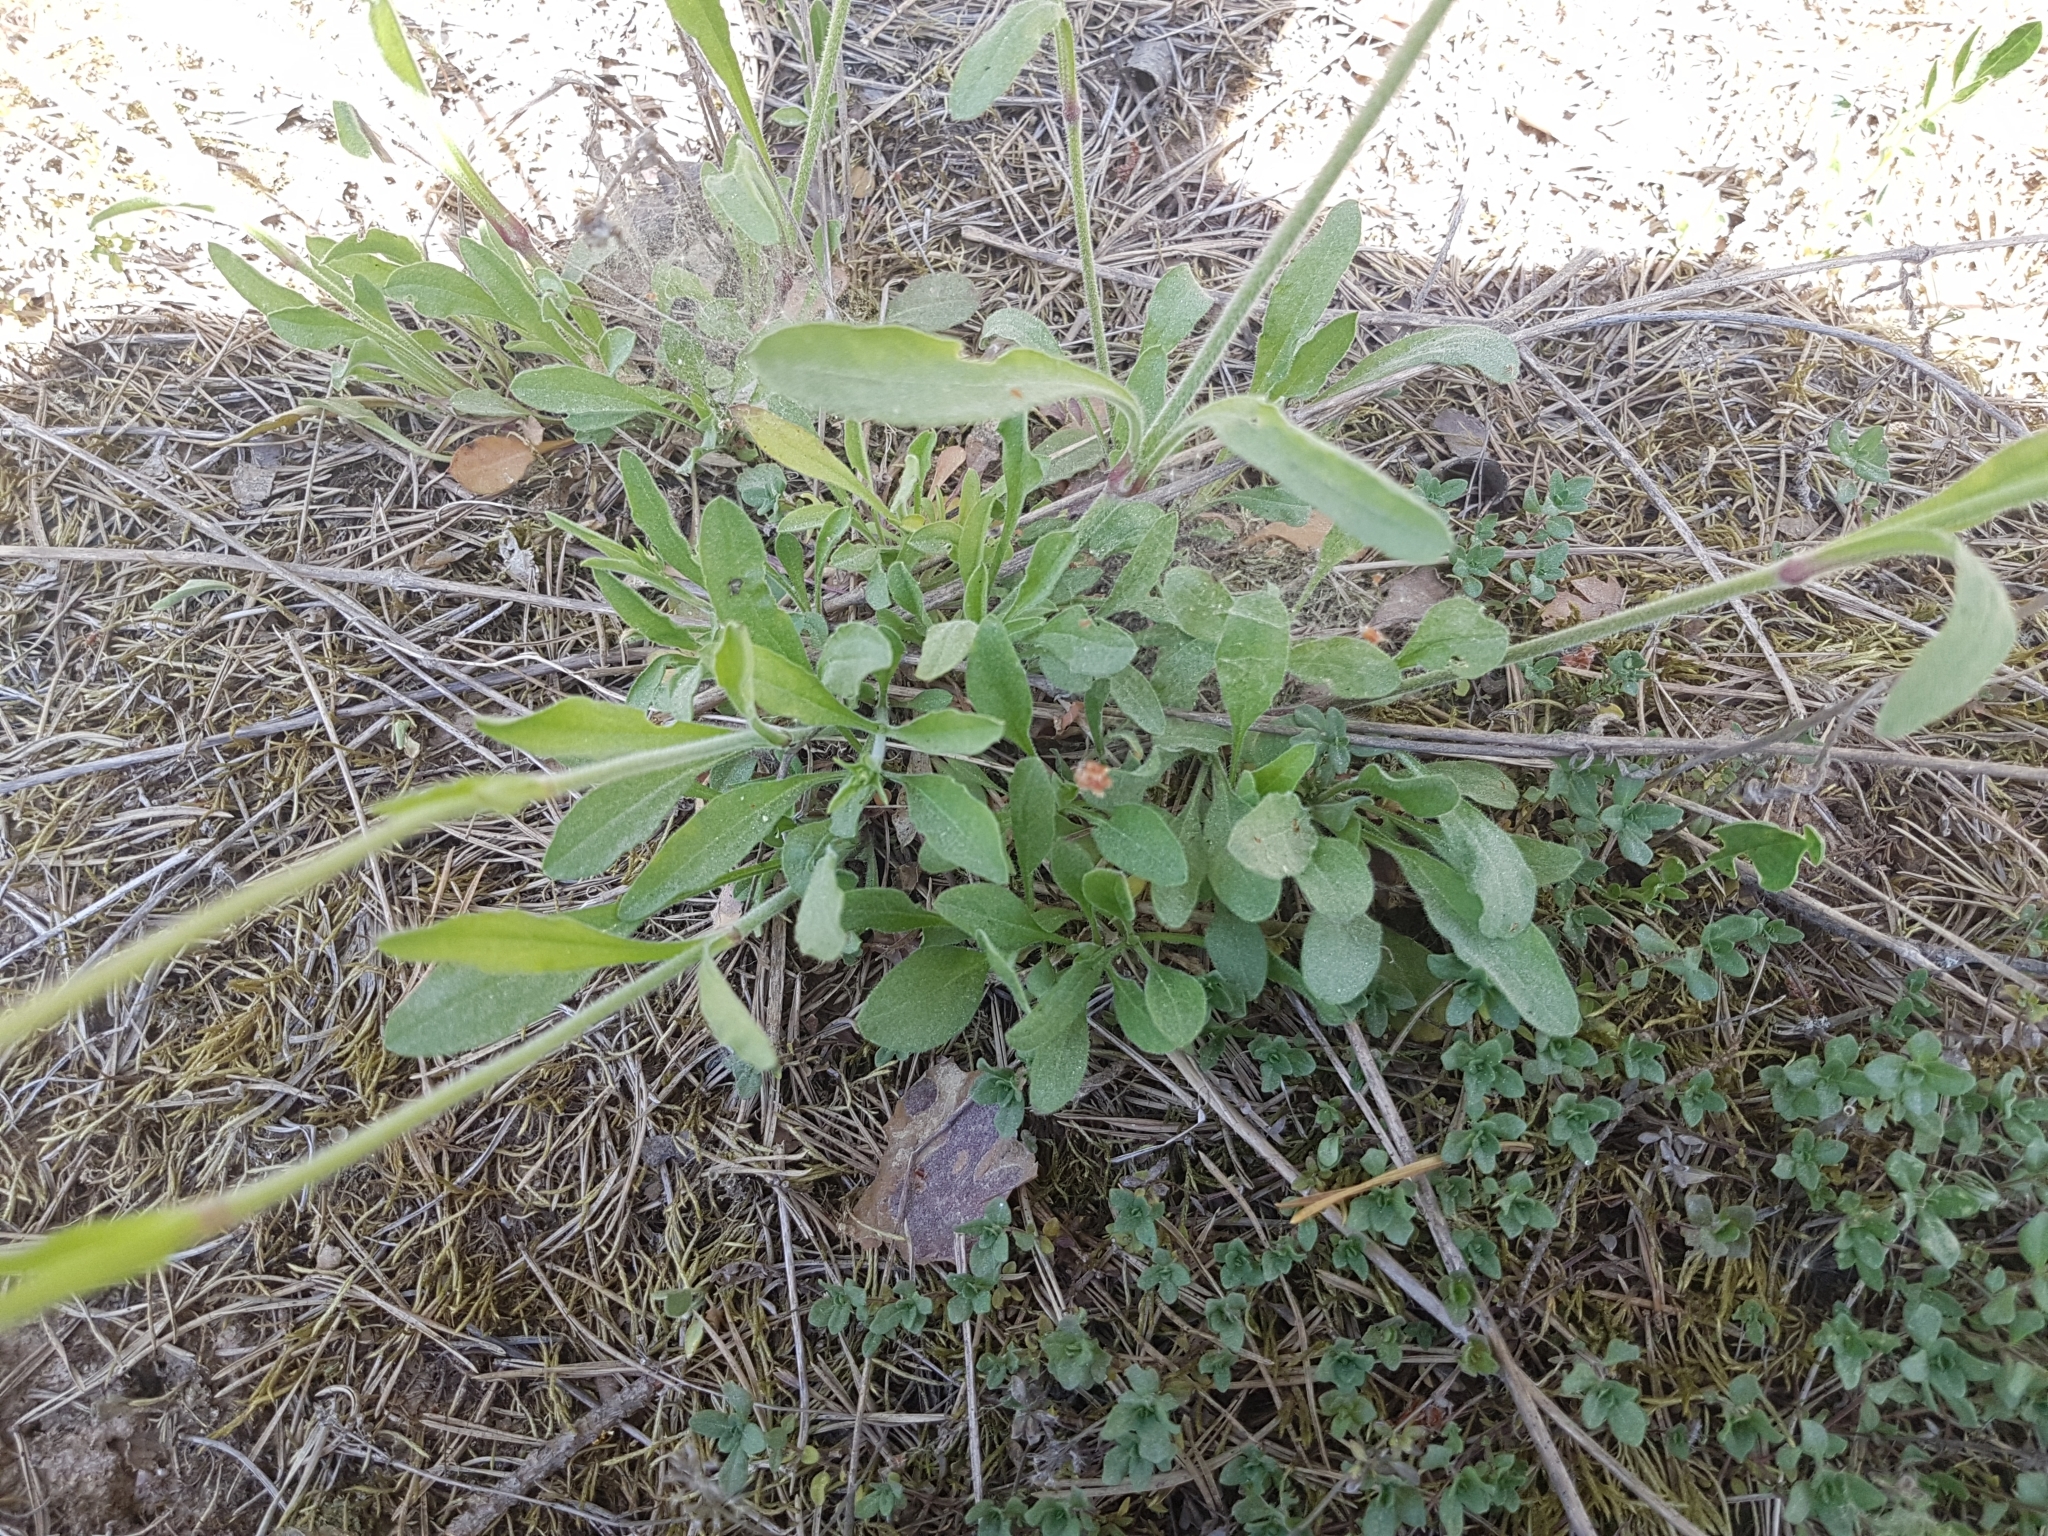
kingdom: Plantae
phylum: Tracheophyta
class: Magnoliopsida
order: Caryophyllales
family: Caryophyllaceae
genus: Silene
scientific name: Silene nutans
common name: Nottingham catchfly
